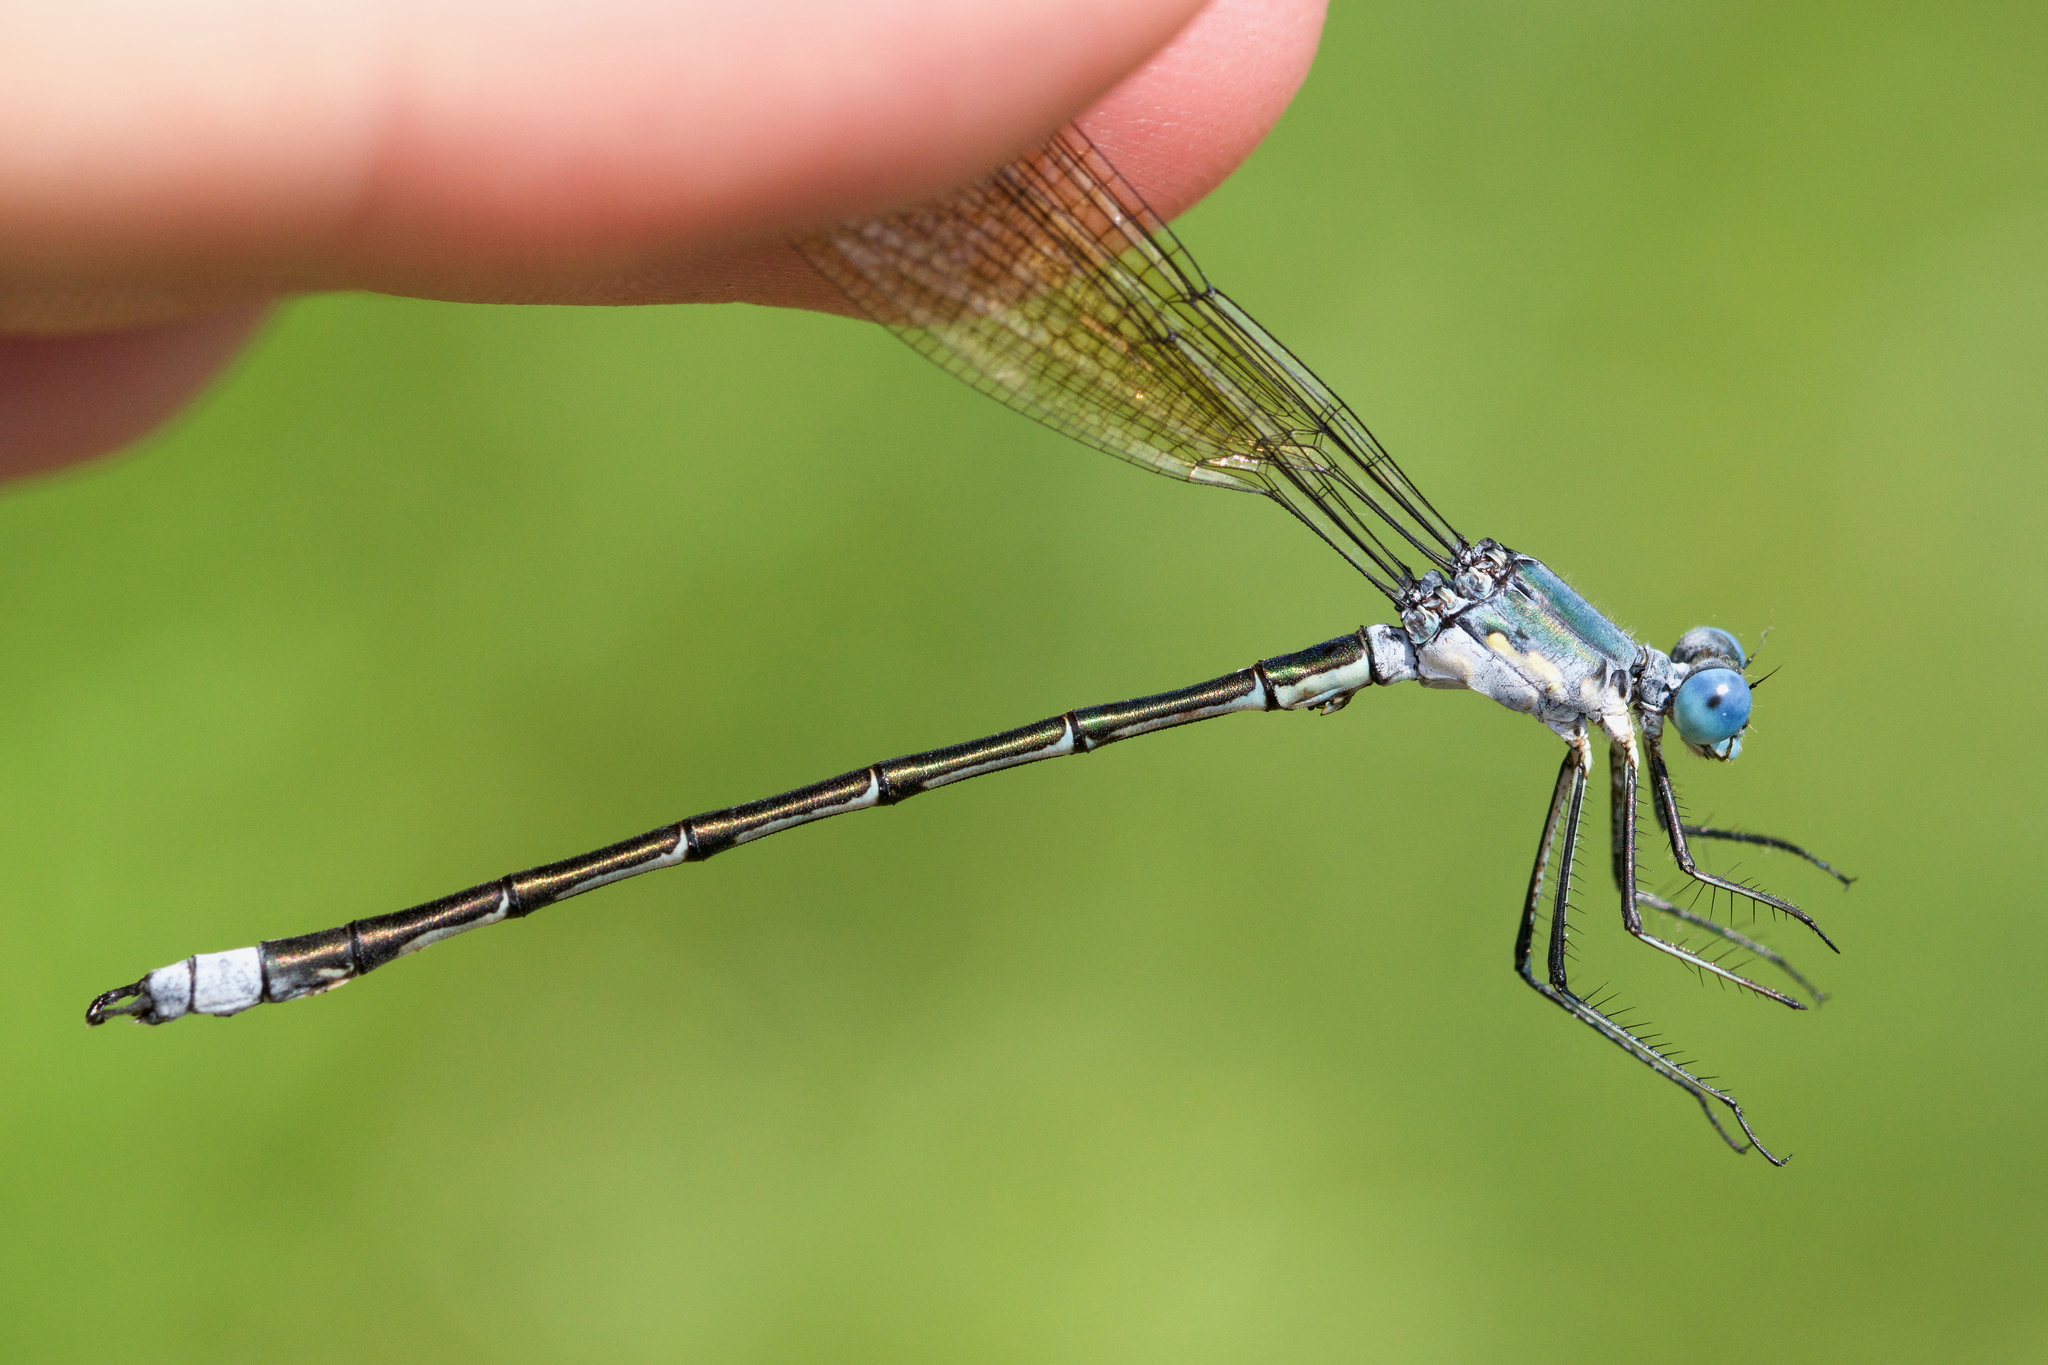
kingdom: Animalia
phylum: Arthropoda
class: Insecta
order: Odonata
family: Lestidae
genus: Lestes
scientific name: Lestes eurinus
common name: Amber-winged spreadwing
